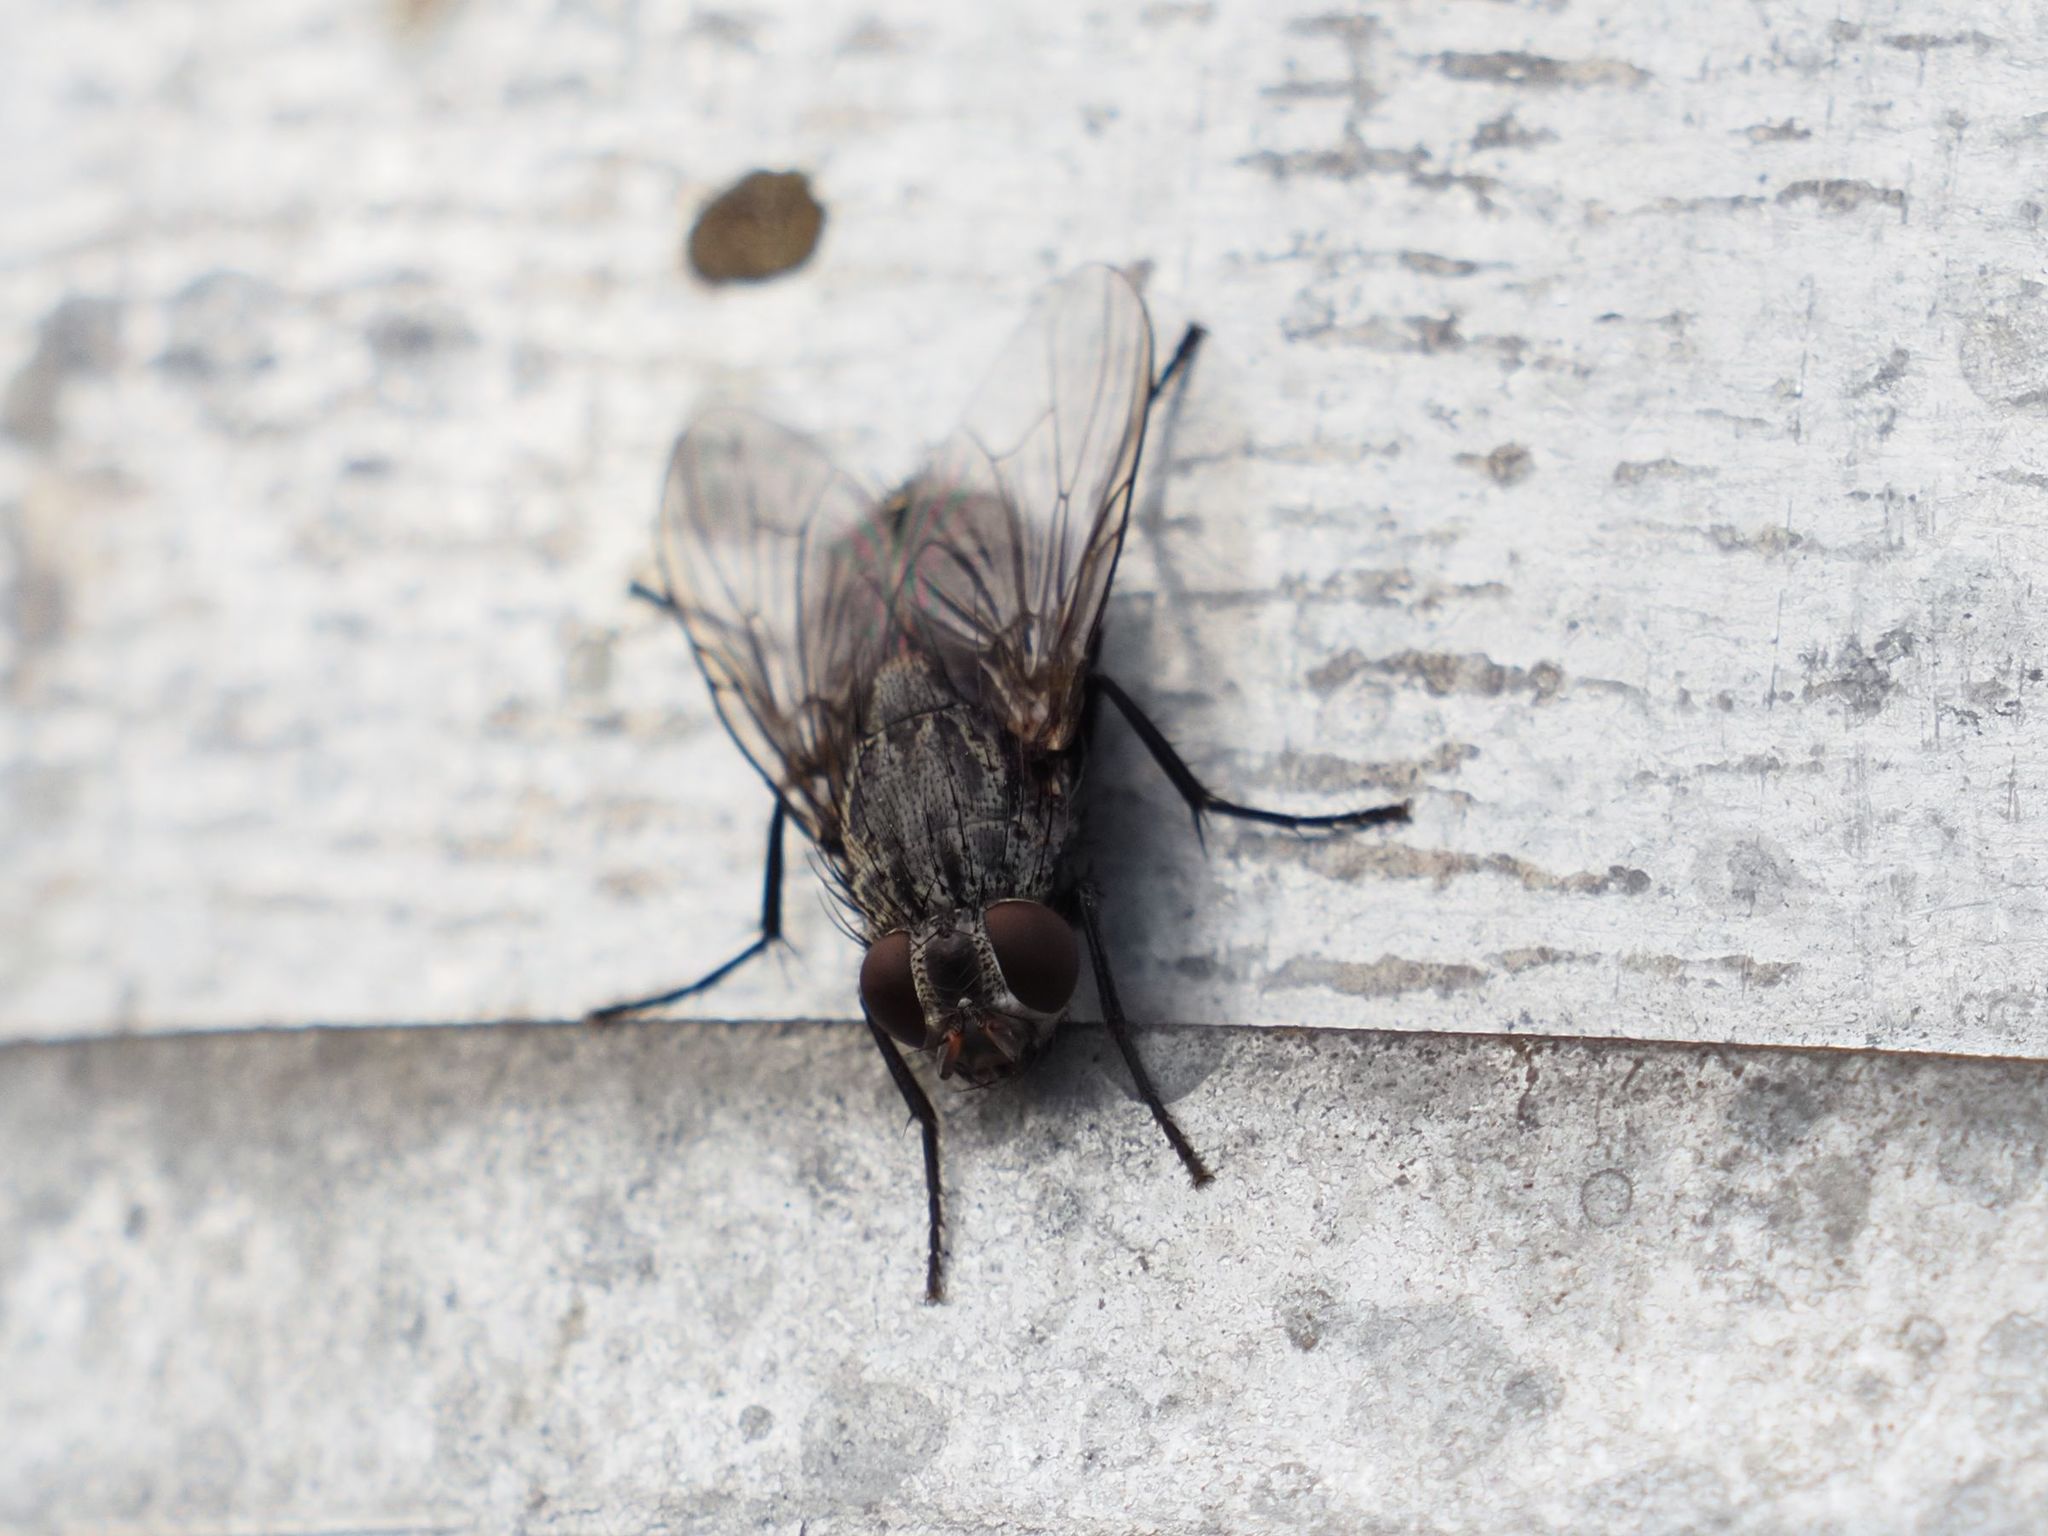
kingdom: Animalia
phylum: Arthropoda
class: Insecta
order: Diptera
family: Muscidae
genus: Muscina
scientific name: Muscina prolapsa
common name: Muscoid fly
